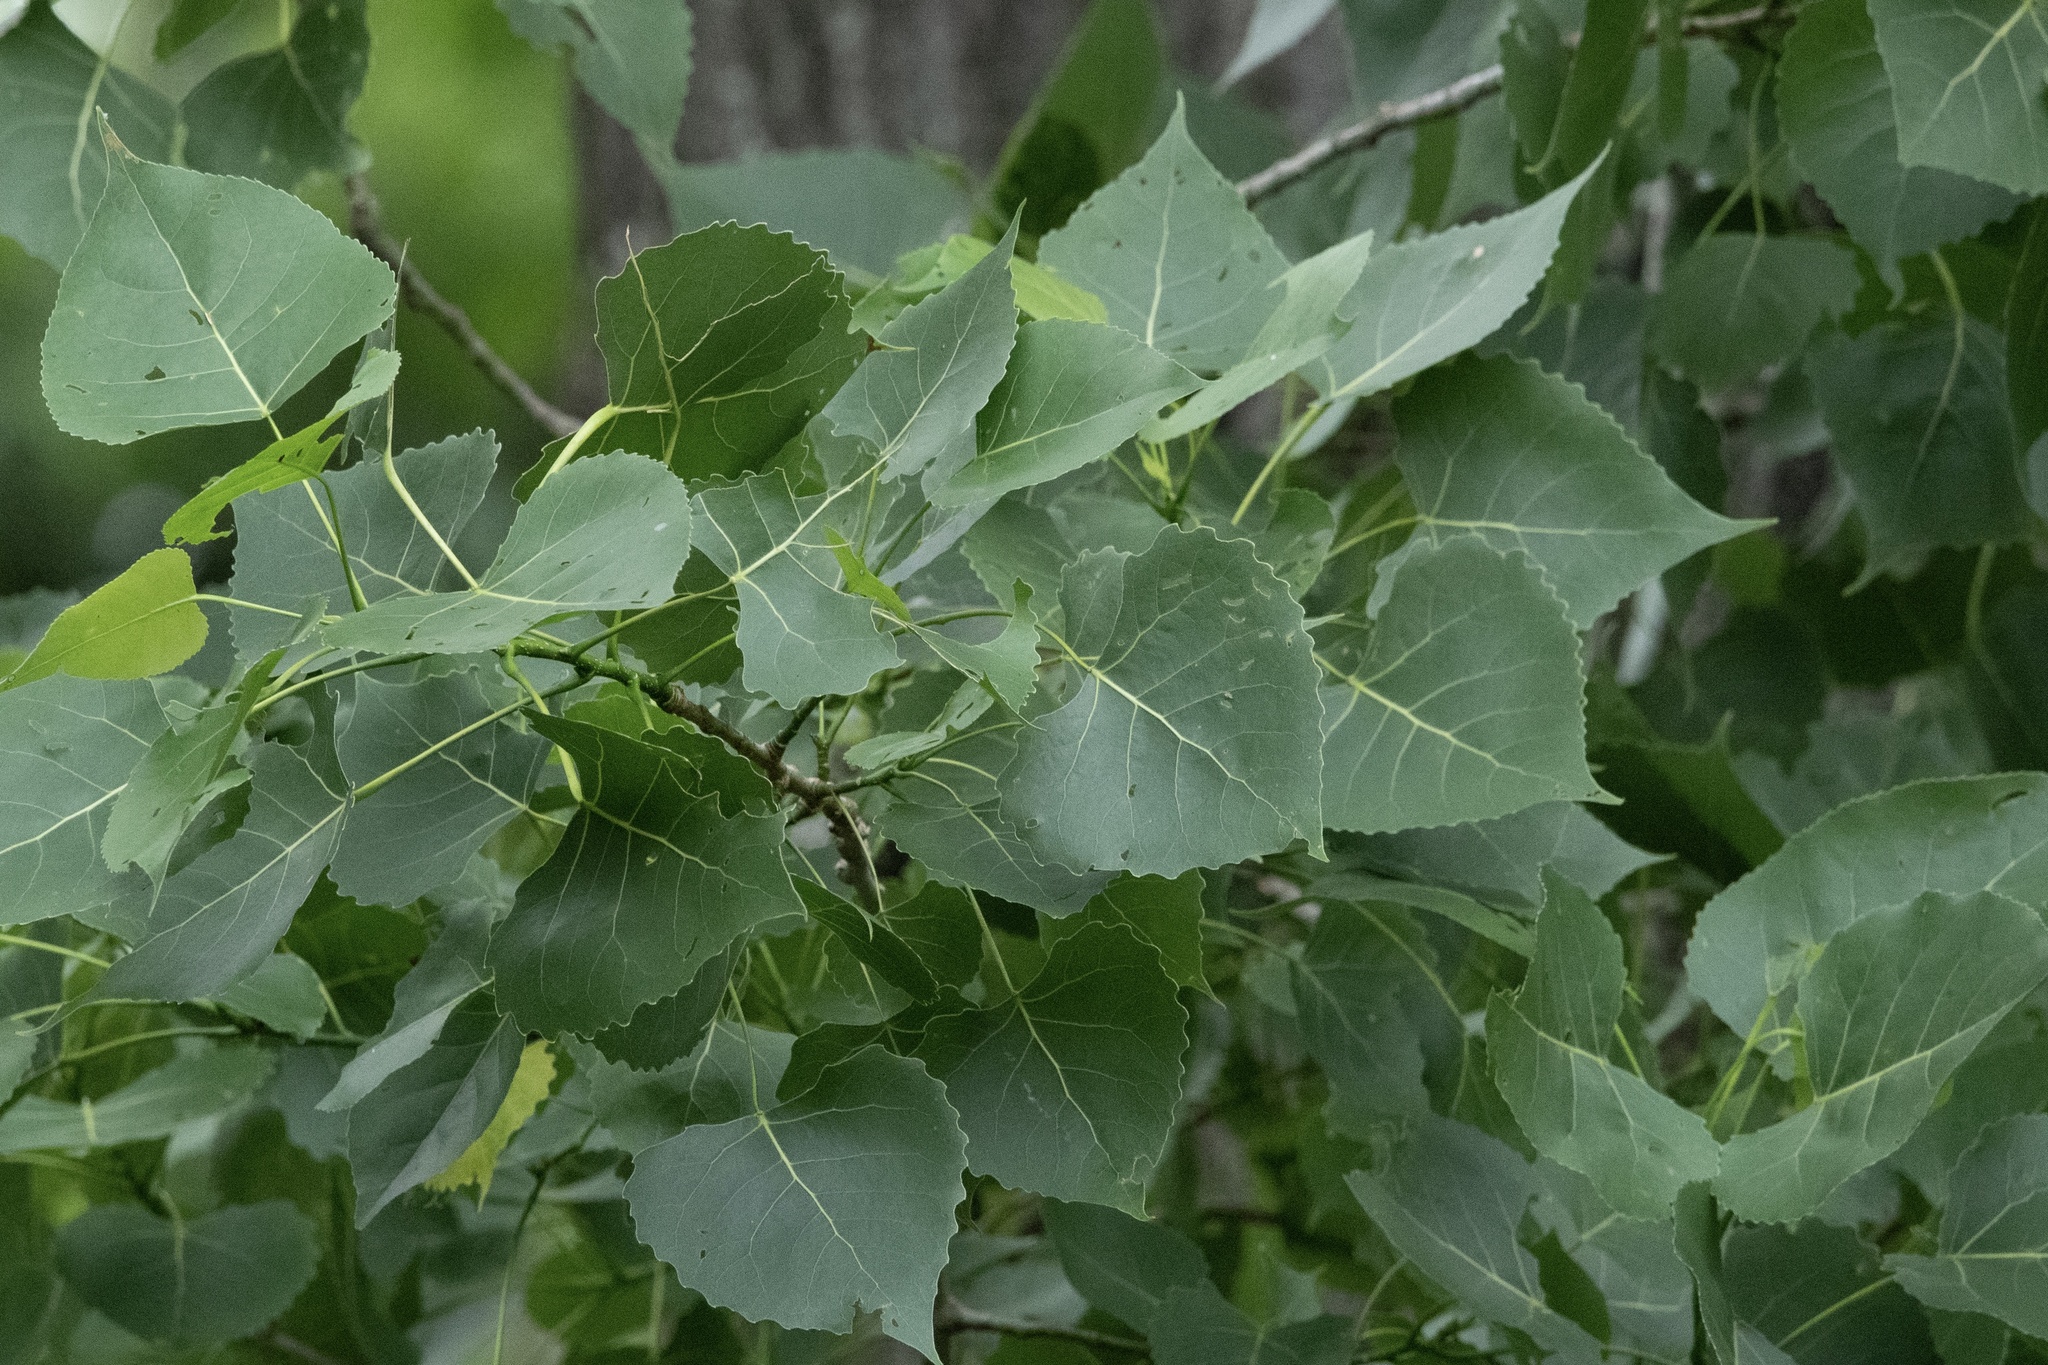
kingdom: Plantae
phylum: Tracheophyta
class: Magnoliopsida
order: Malpighiales
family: Salicaceae
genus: Populus
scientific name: Populus deltoides
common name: Eastern cottonwood
